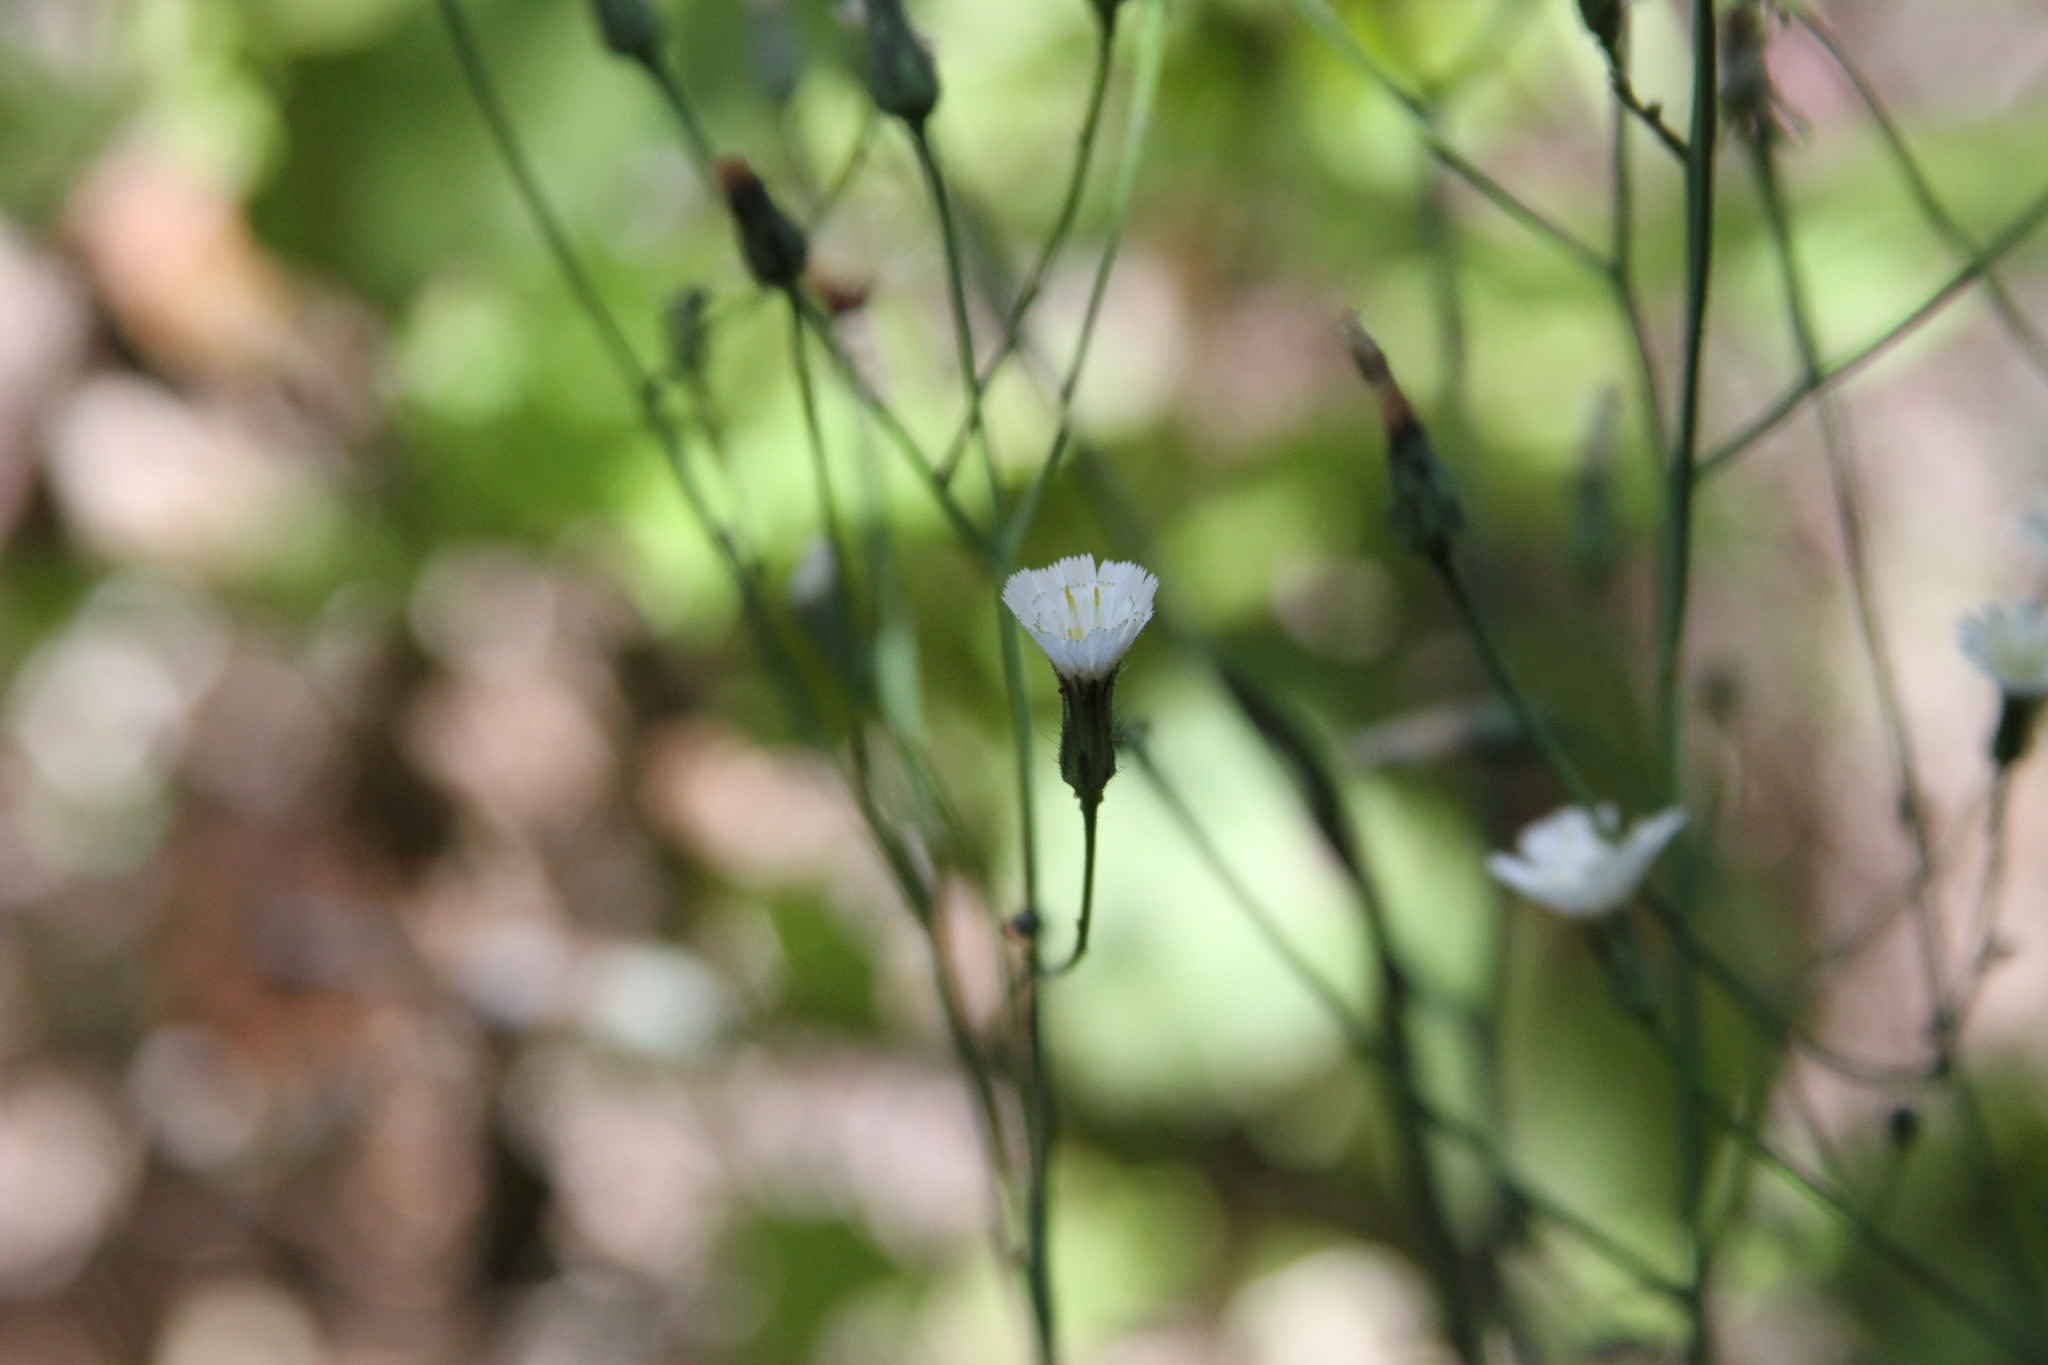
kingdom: Plantae
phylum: Tracheophyta
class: Magnoliopsida
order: Asterales
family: Asteraceae
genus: Hieracium
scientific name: Hieracium albiflorum
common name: White hawkweed
